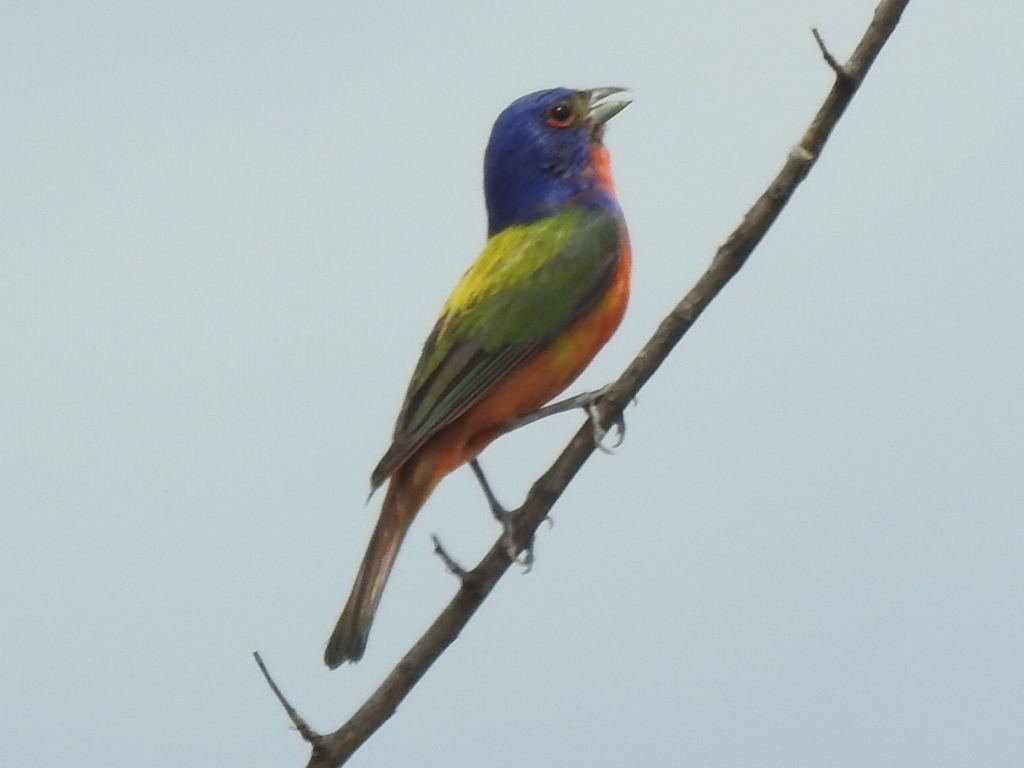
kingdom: Animalia
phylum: Chordata
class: Aves
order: Passeriformes
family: Cardinalidae
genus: Passerina
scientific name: Passerina ciris
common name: Painted bunting
